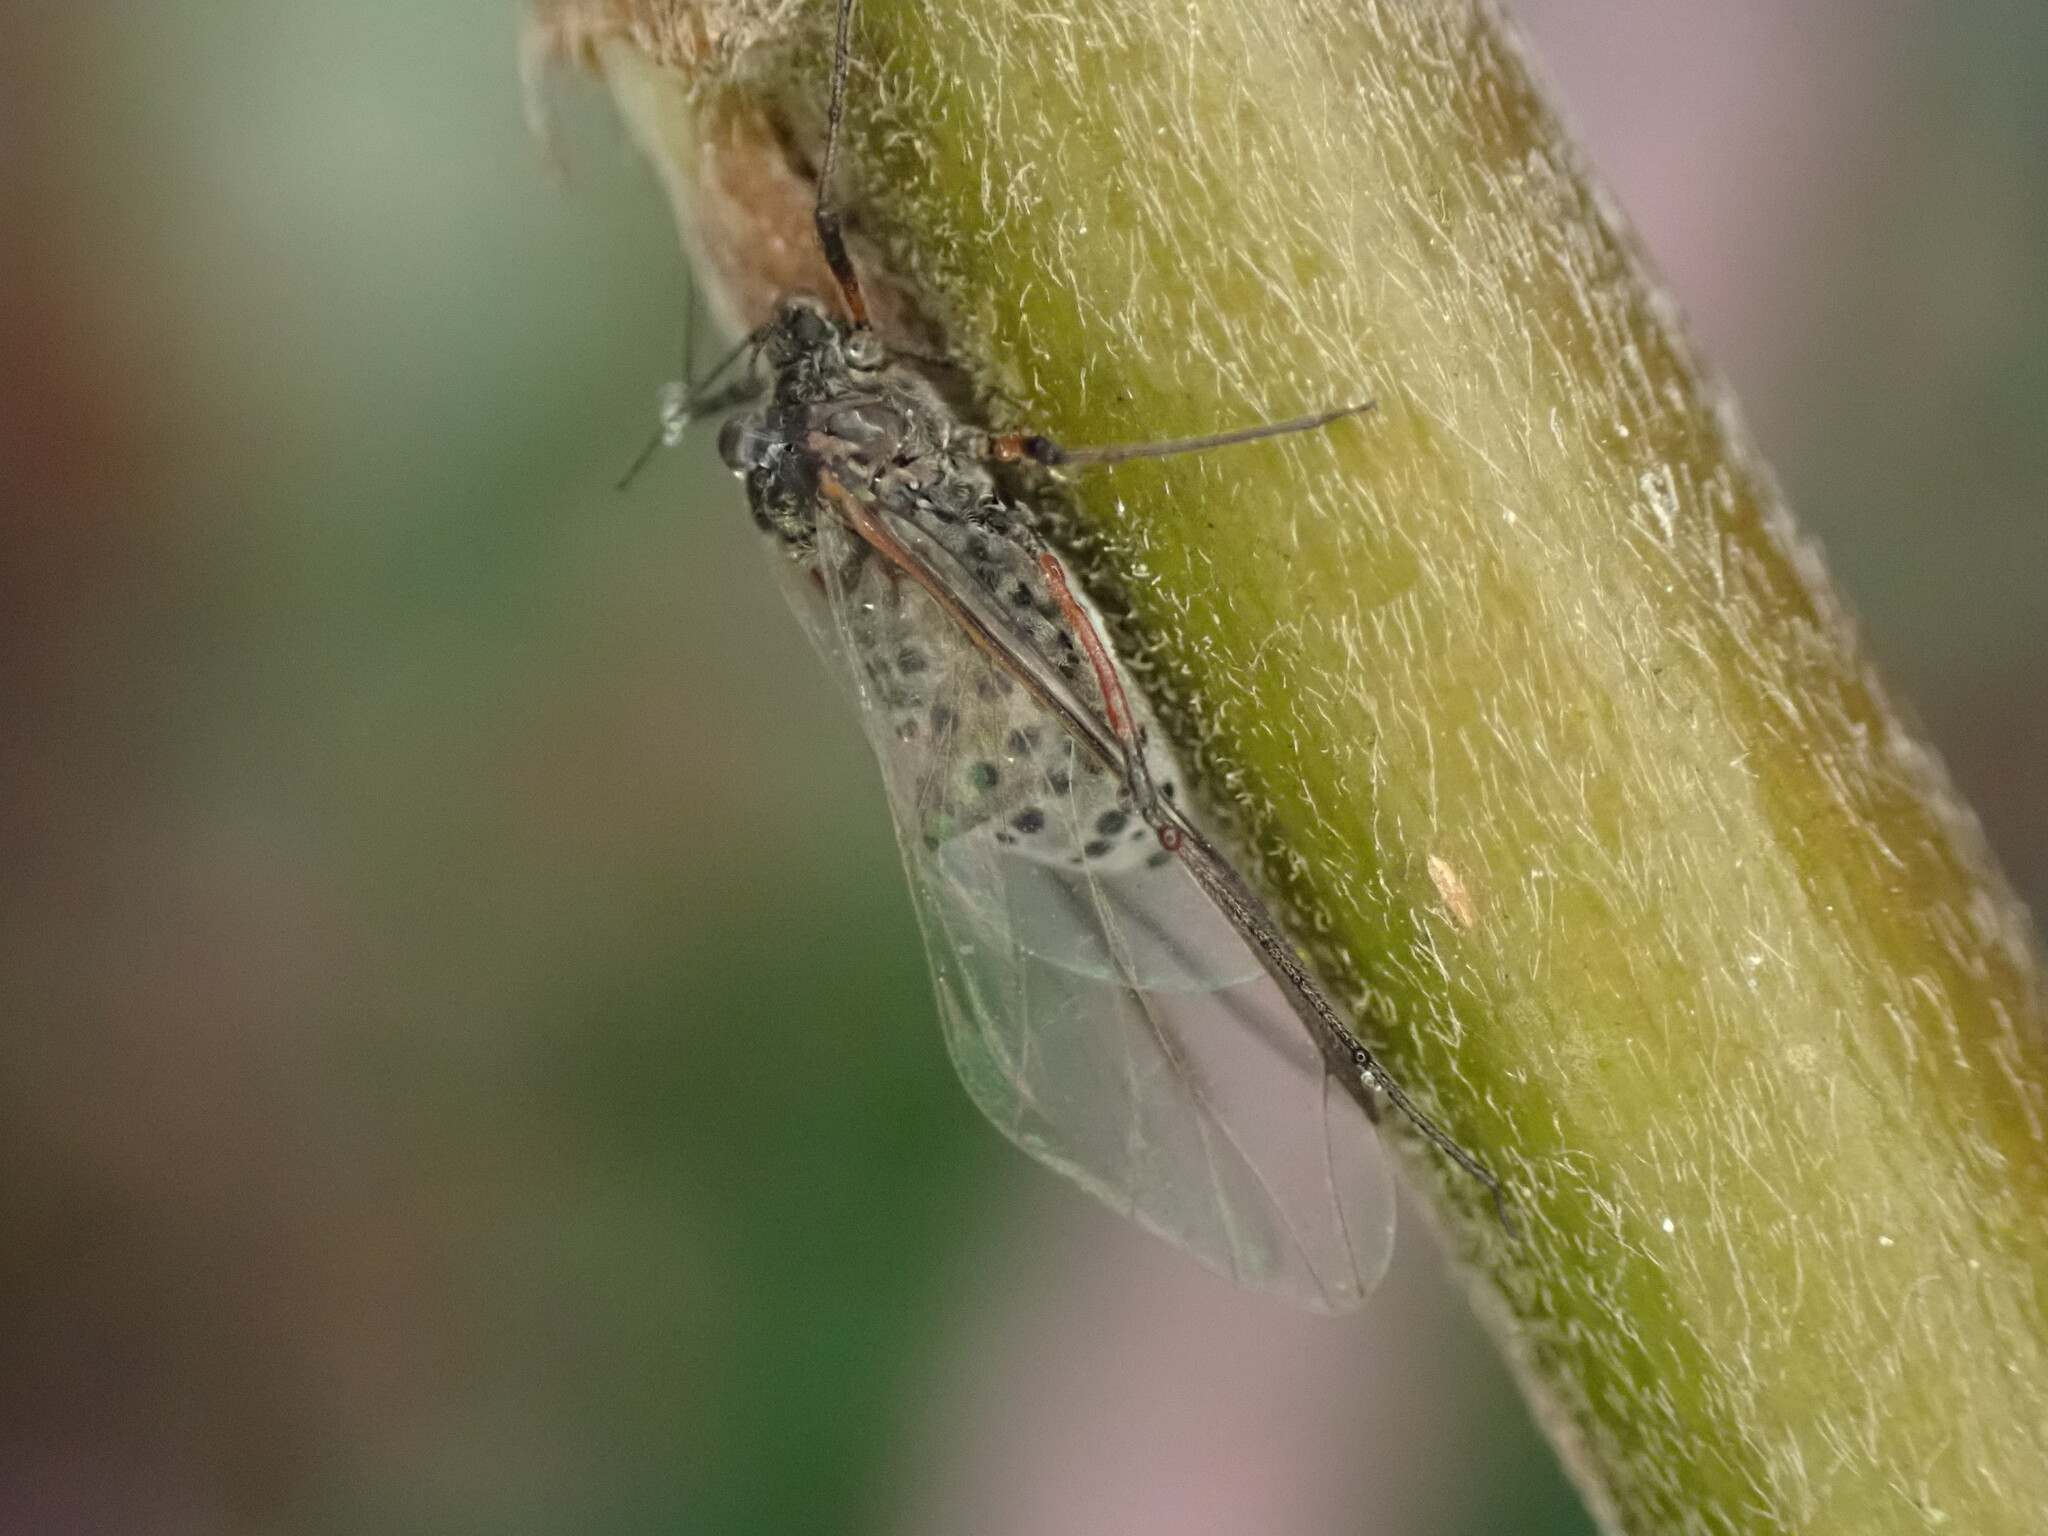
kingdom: Animalia
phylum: Arthropoda
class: Insecta
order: Hemiptera
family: Aphididae
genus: Tuberolachnus
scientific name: Tuberolachnus salignus
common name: Giant willow aphid
